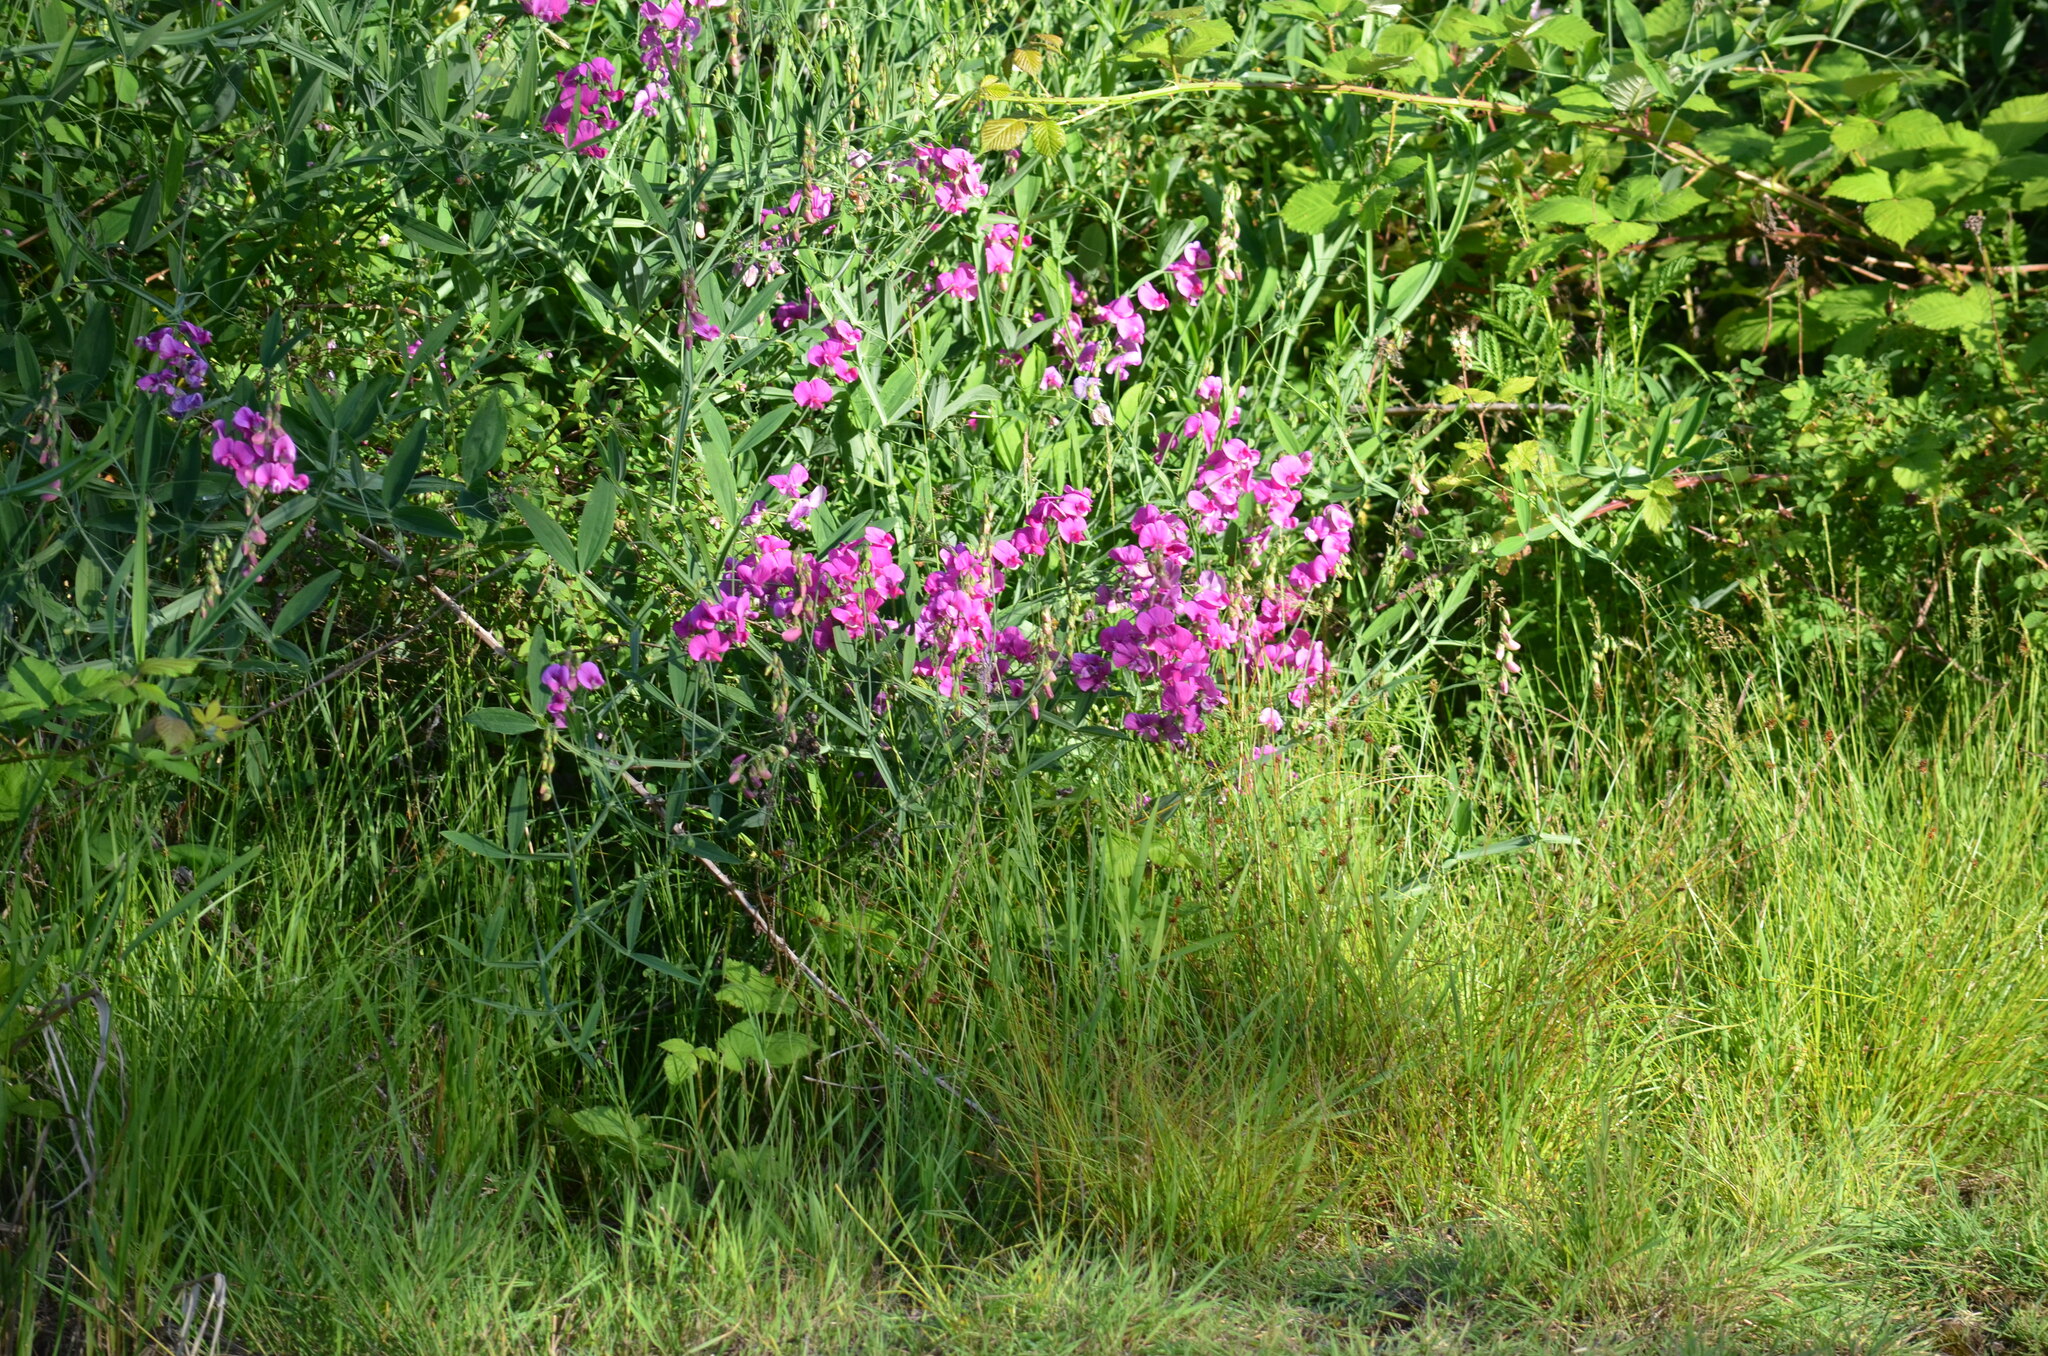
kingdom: Plantae
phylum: Tracheophyta
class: Magnoliopsida
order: Fabales
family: Fabaceae
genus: Lathyrus
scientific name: Lathyrus latifolius
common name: Perennial pea
